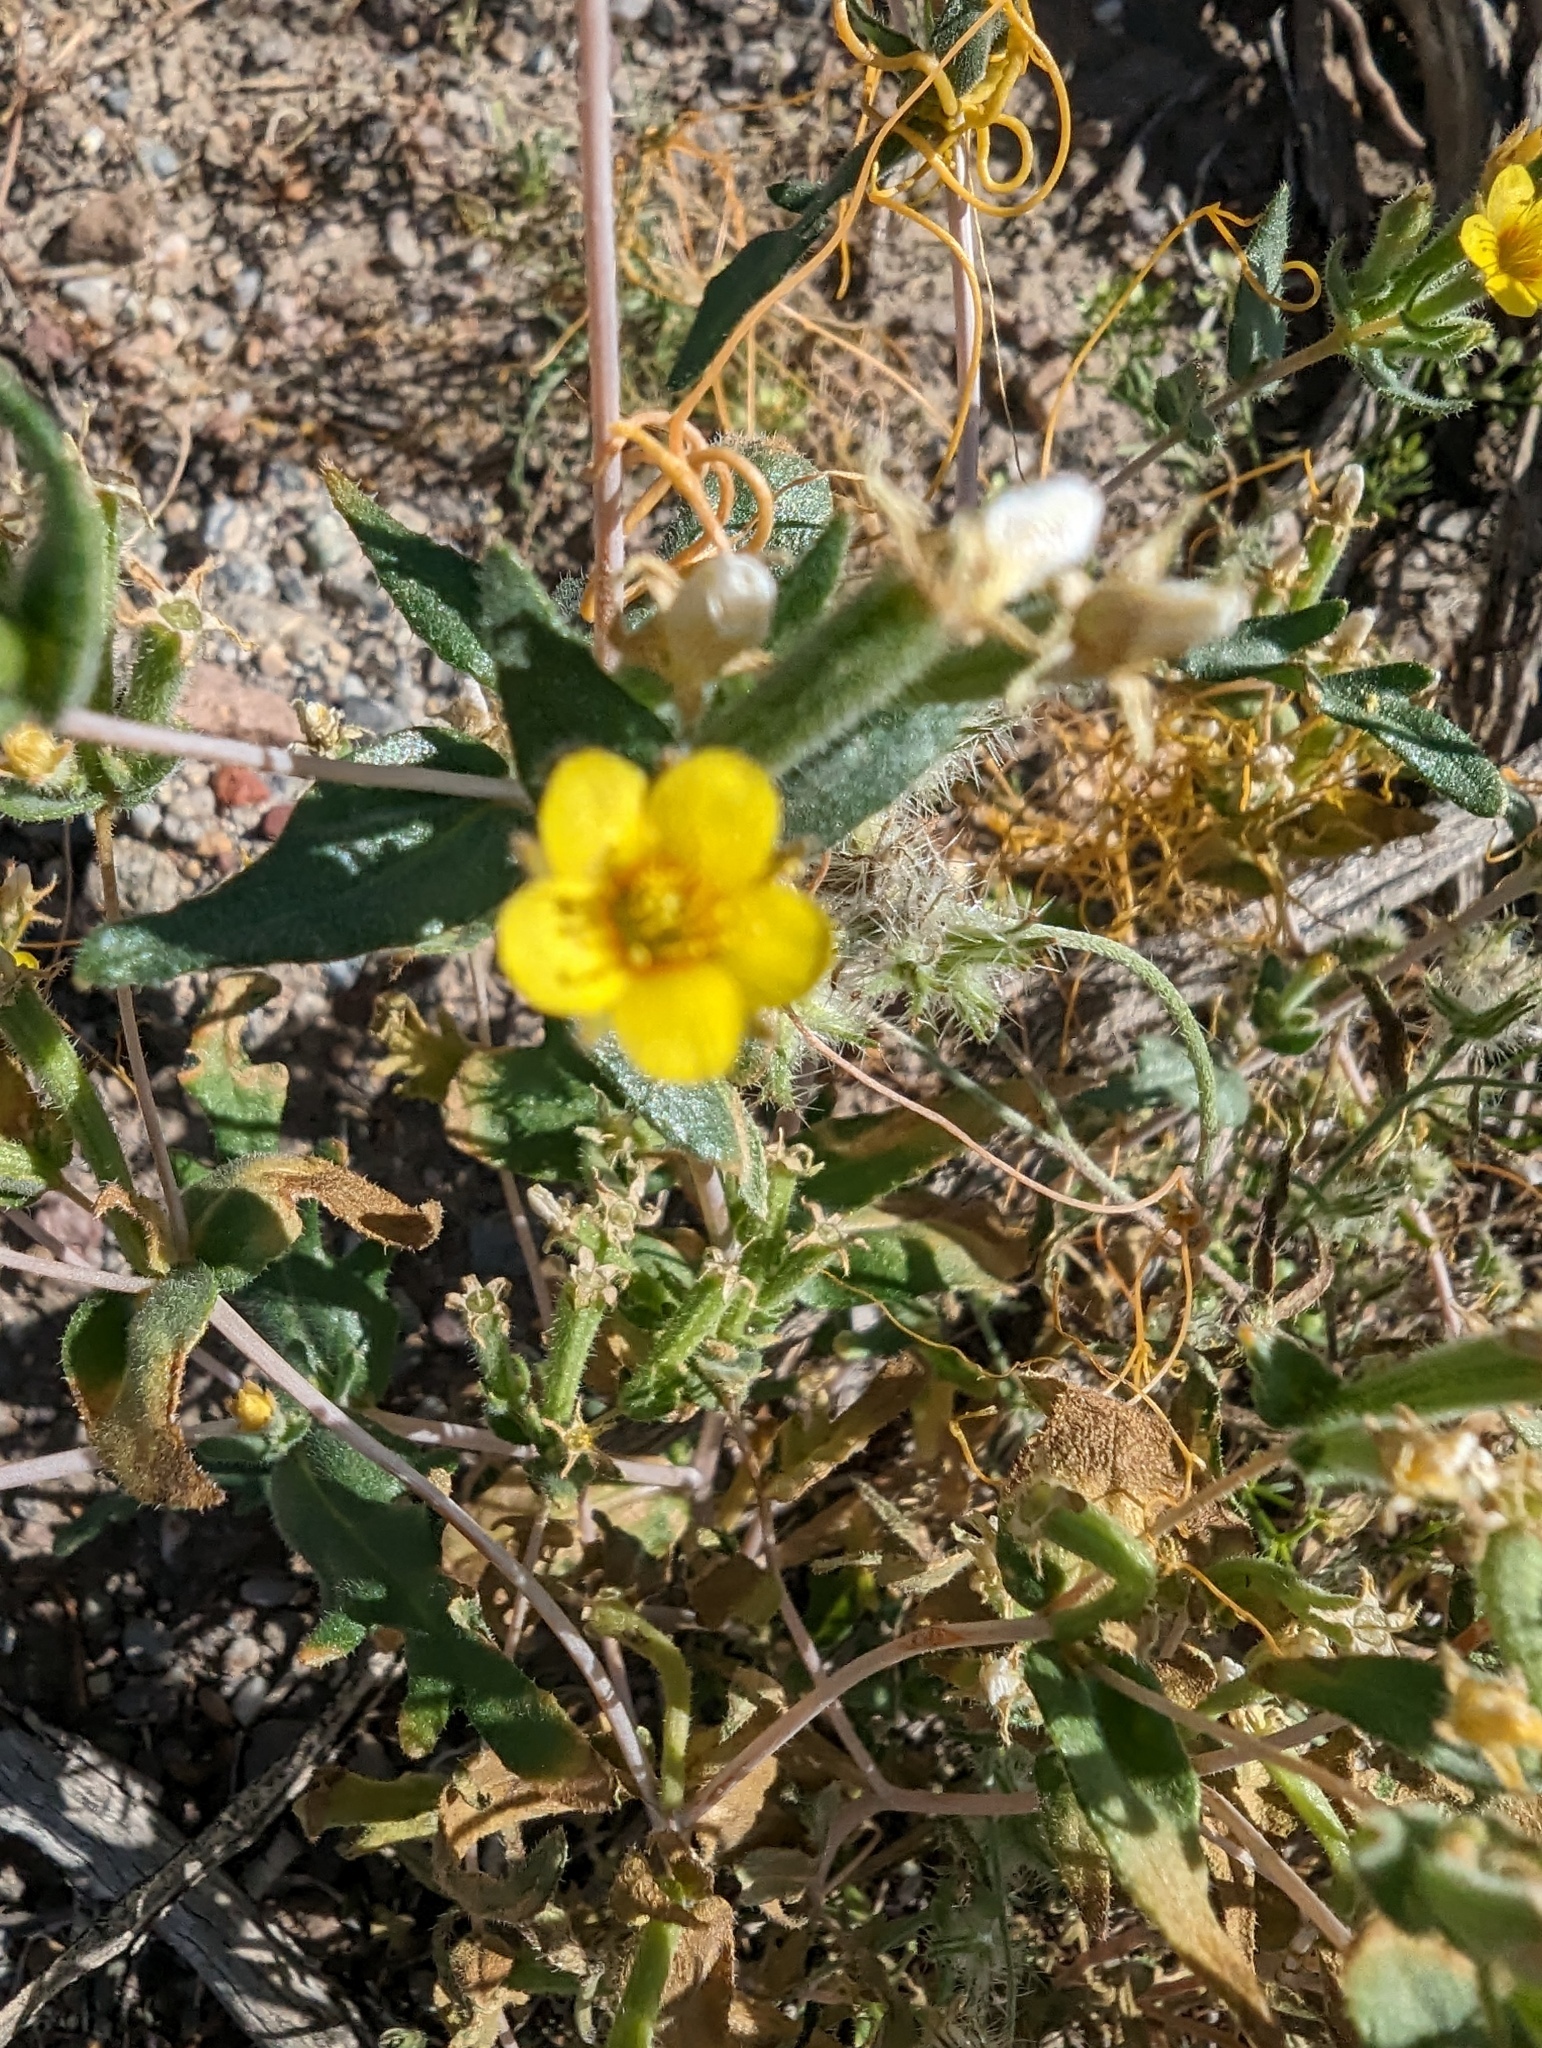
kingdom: Plantae
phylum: Tracheophyta
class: Magnoliopsida
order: Cornales
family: Loasaceae
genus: Mentzelia
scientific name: Mentzelia albicaulis
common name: White-stem blazingstar
